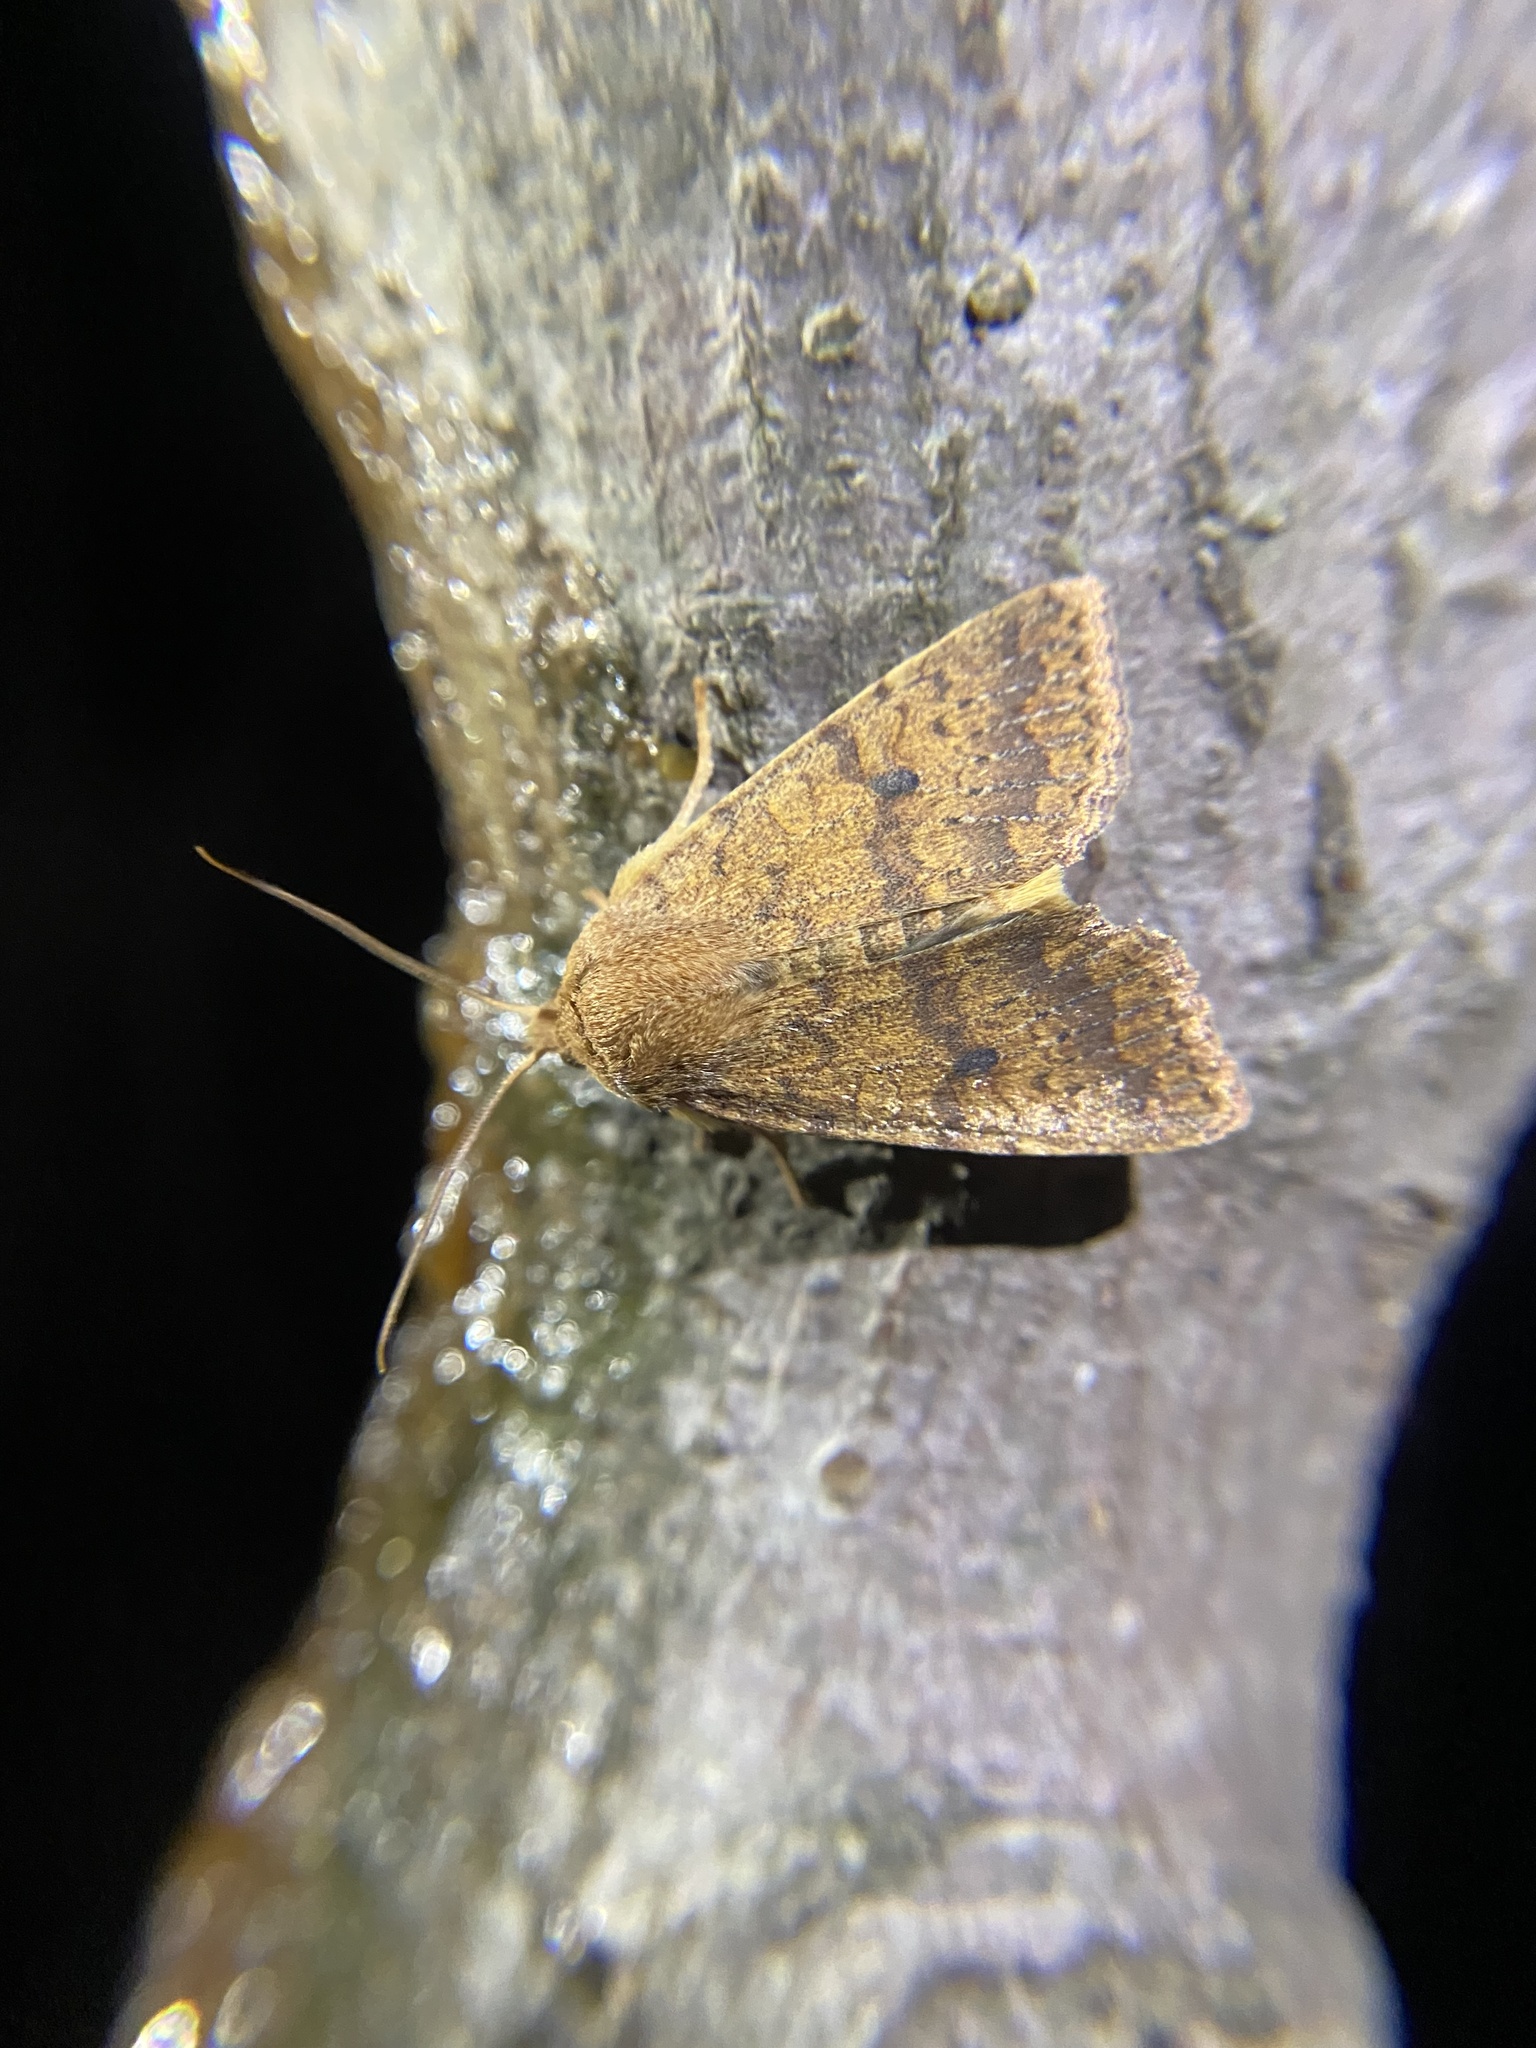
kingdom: Animalia
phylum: Arthropoda
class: Insecta
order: Lepidoptera
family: Noctuidae
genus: Agrochola
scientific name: Agrochola bicolorago
